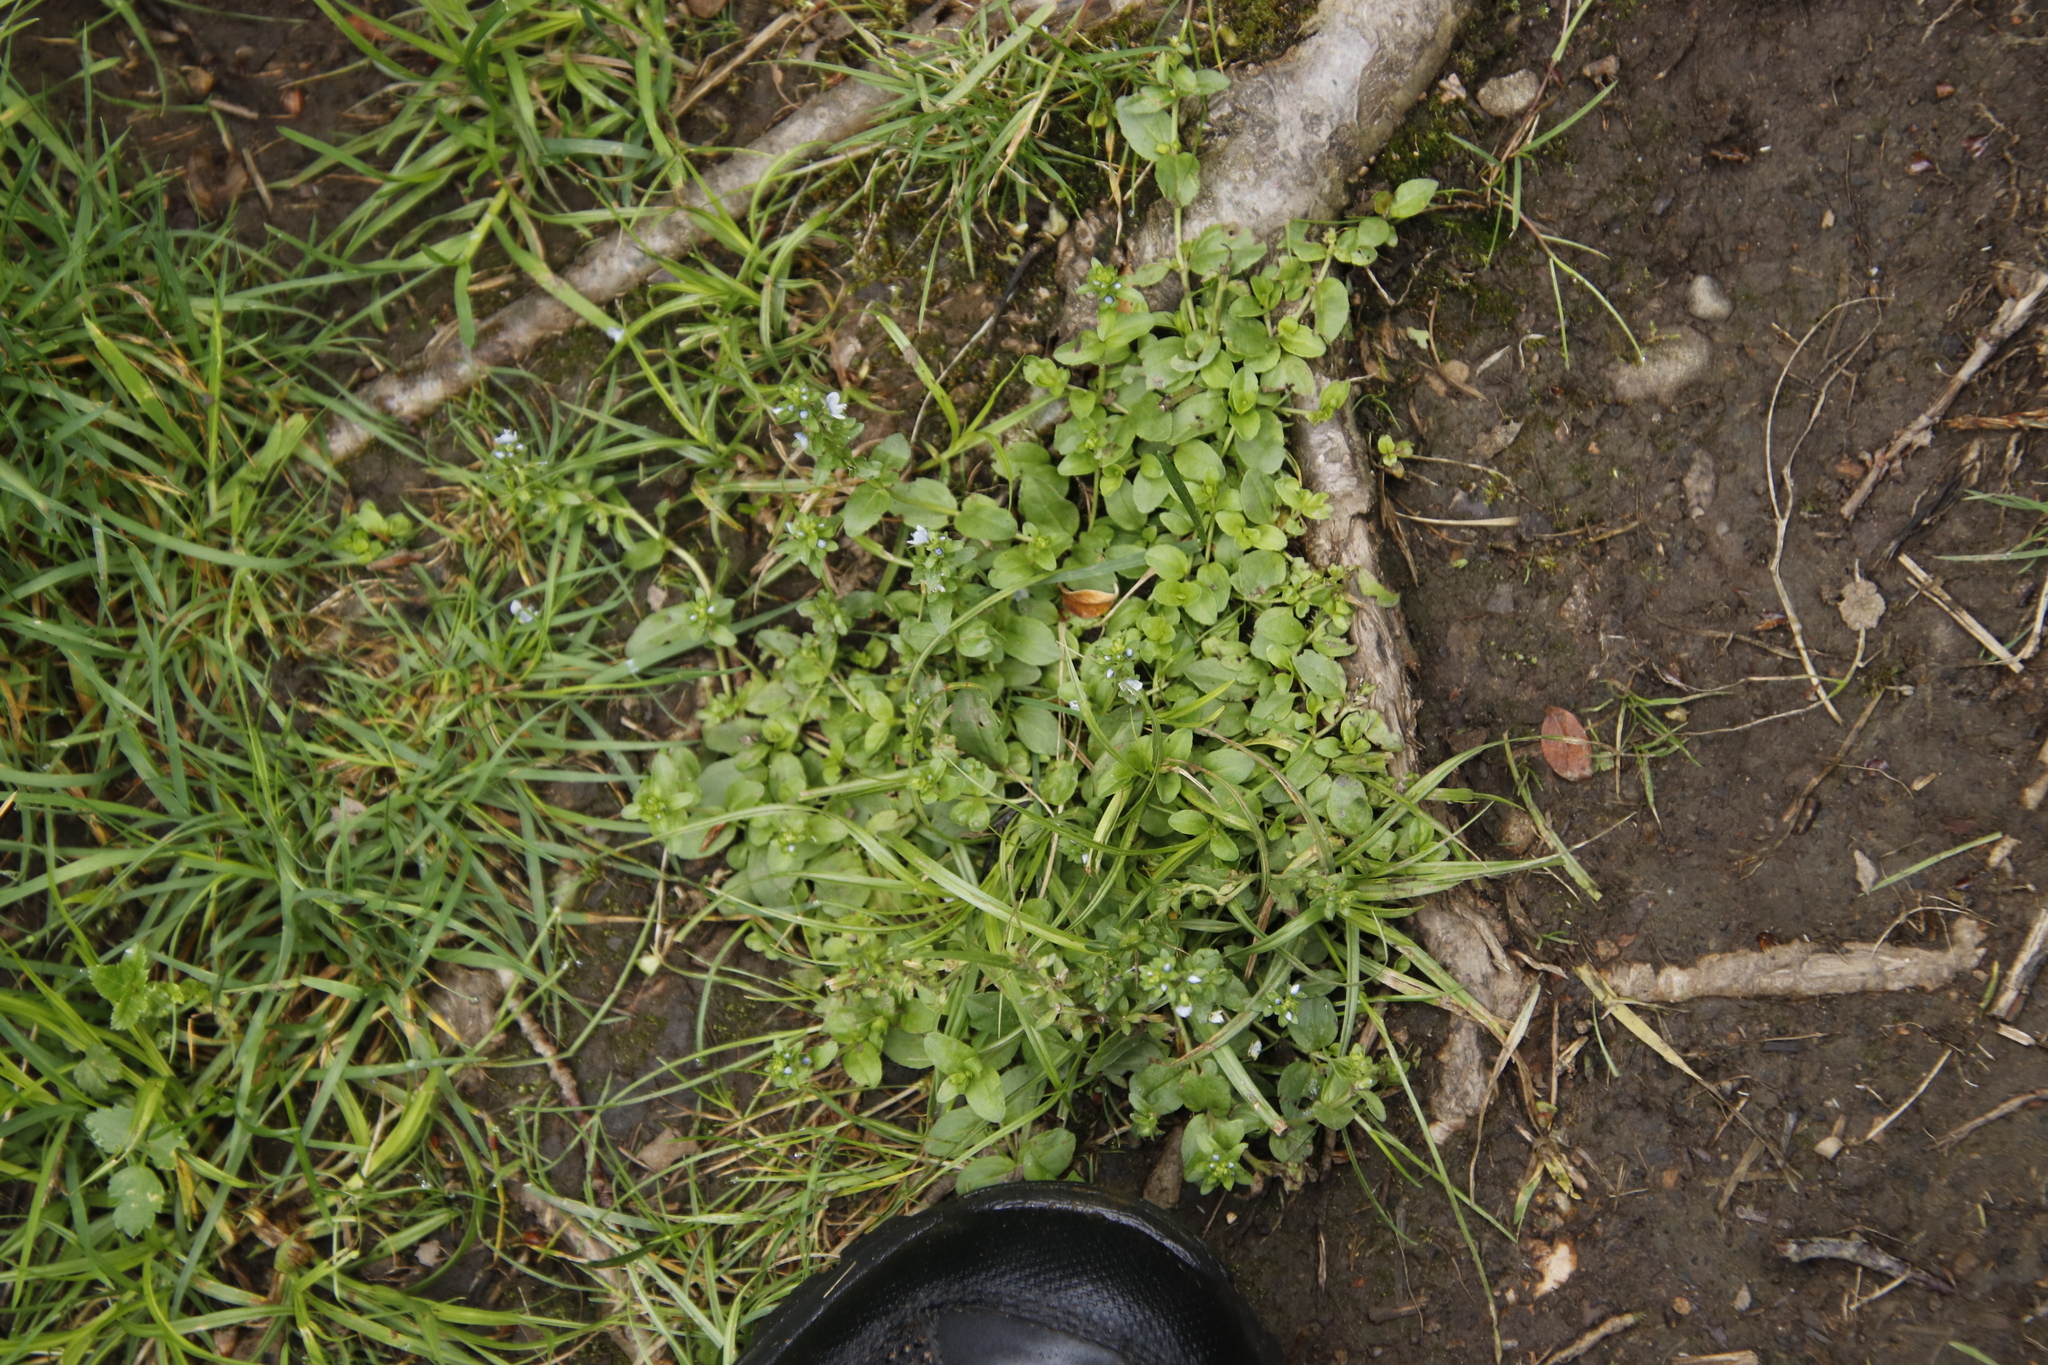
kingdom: Plantae
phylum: Tracheophyta
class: Magnoliopsida
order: Lamiales
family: Plantaginaceae
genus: Veronica
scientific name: Veronica serpyllifolia
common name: Thyme-leaved speedwell
